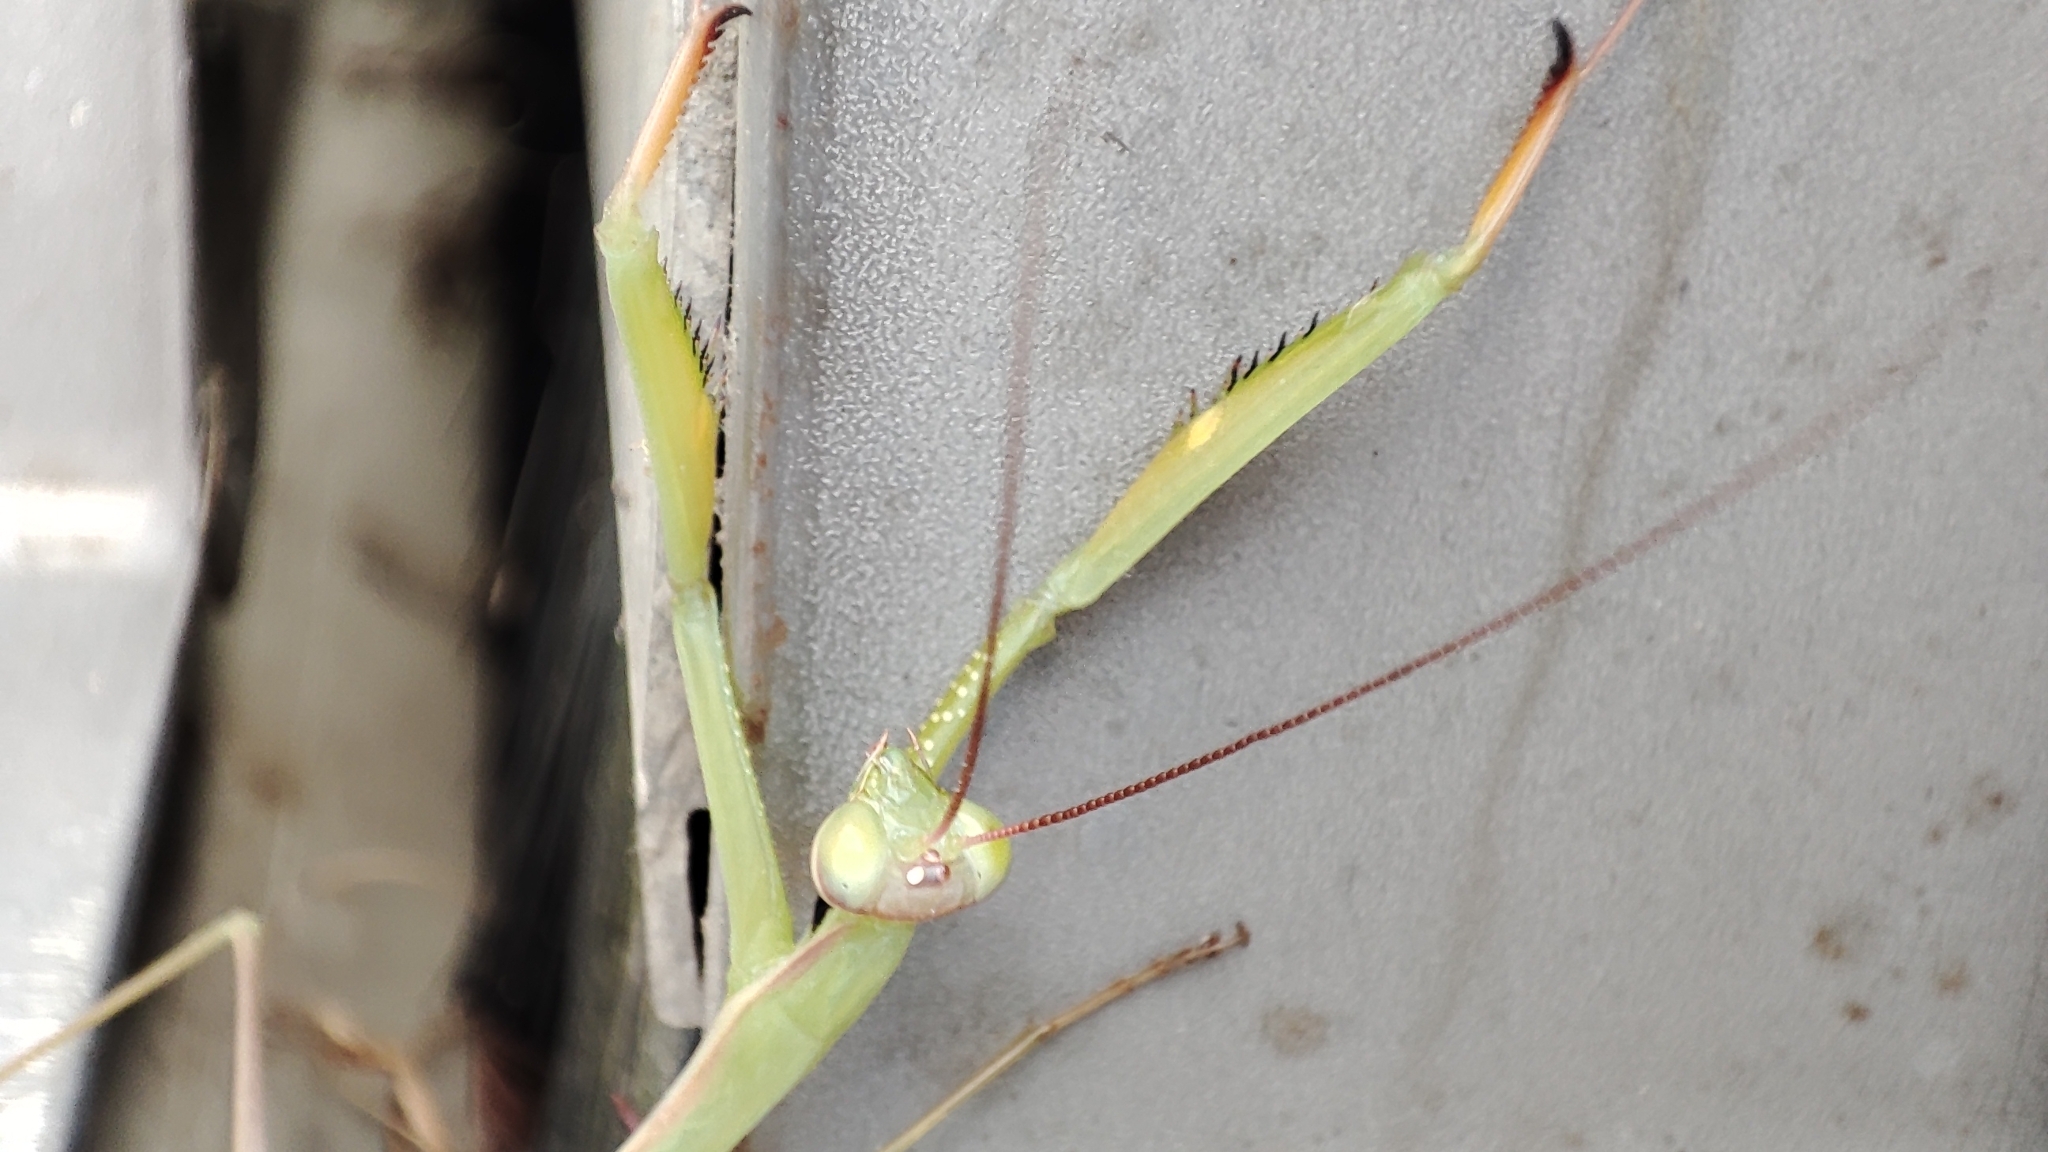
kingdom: Animalia
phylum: Arthropoda
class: Insecta
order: Mantodea
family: Mantidae
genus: Mantis
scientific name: Mantis religiosa
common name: Praying mantis
